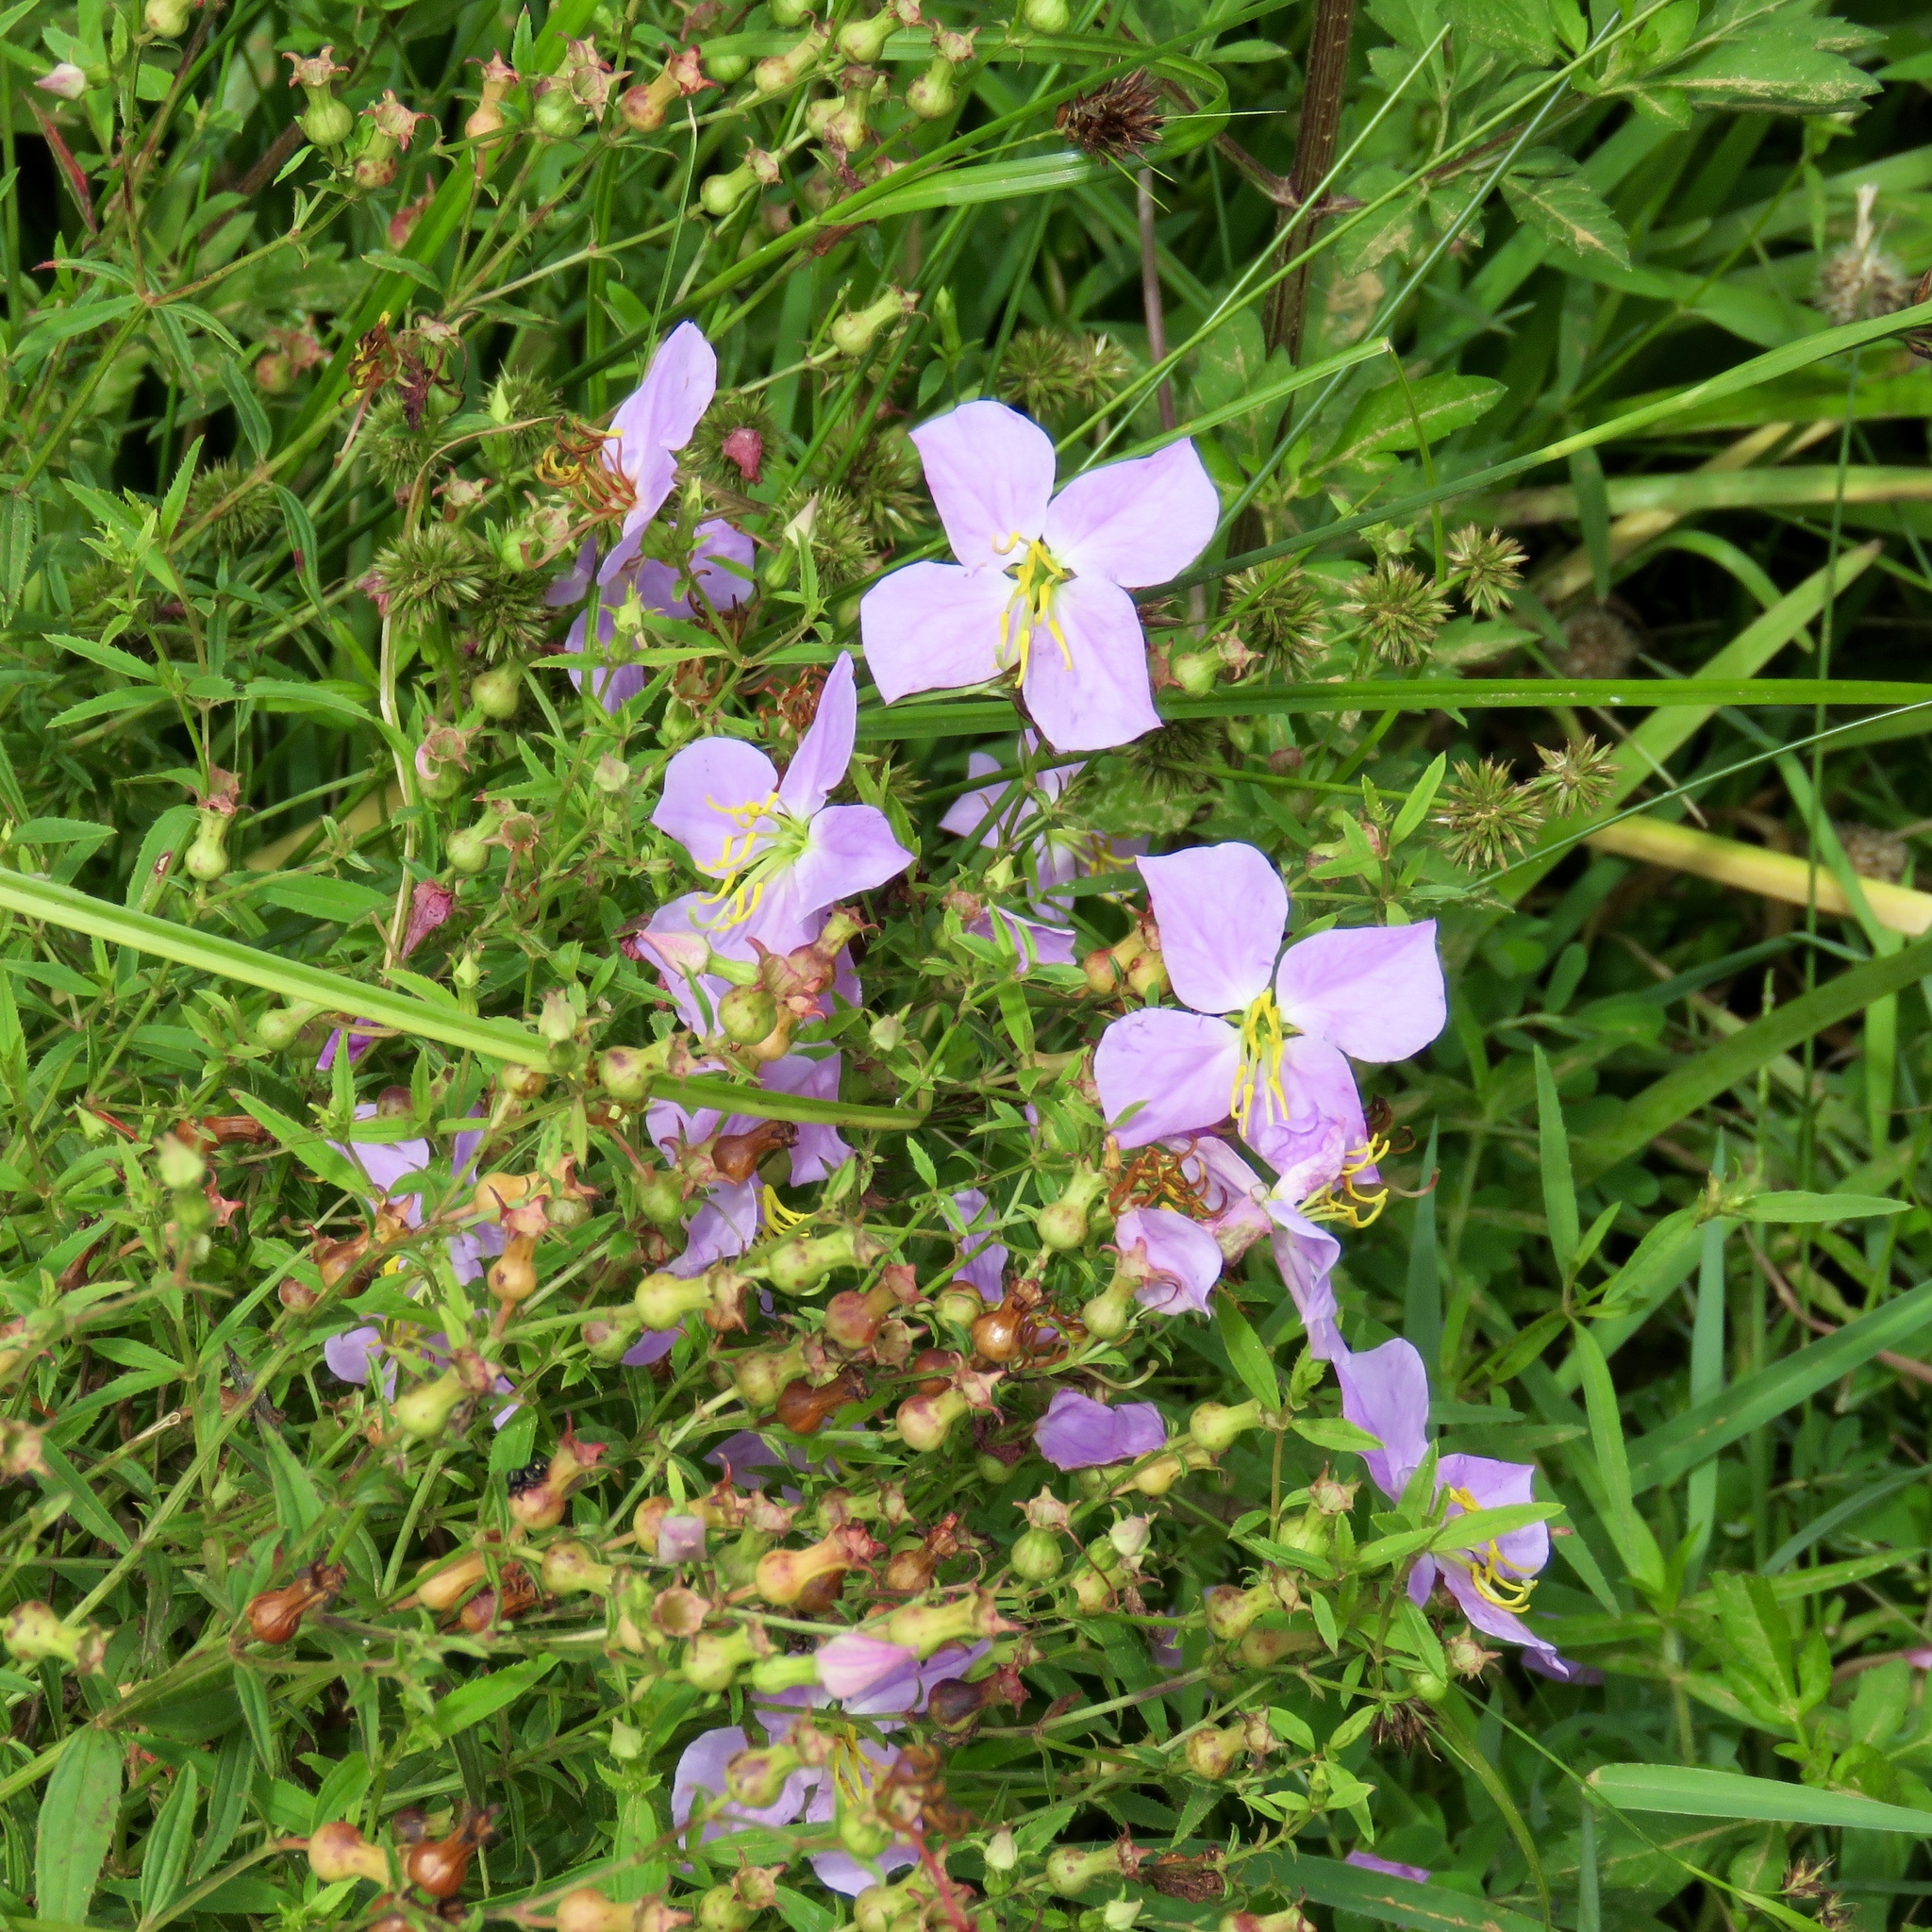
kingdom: Plantae
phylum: Tracheophyta
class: Magnoliopsida
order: Myrtales
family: Melastomataceae
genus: Rhexia
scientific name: Rhexia mariana
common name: Dull meadow-pitcher
